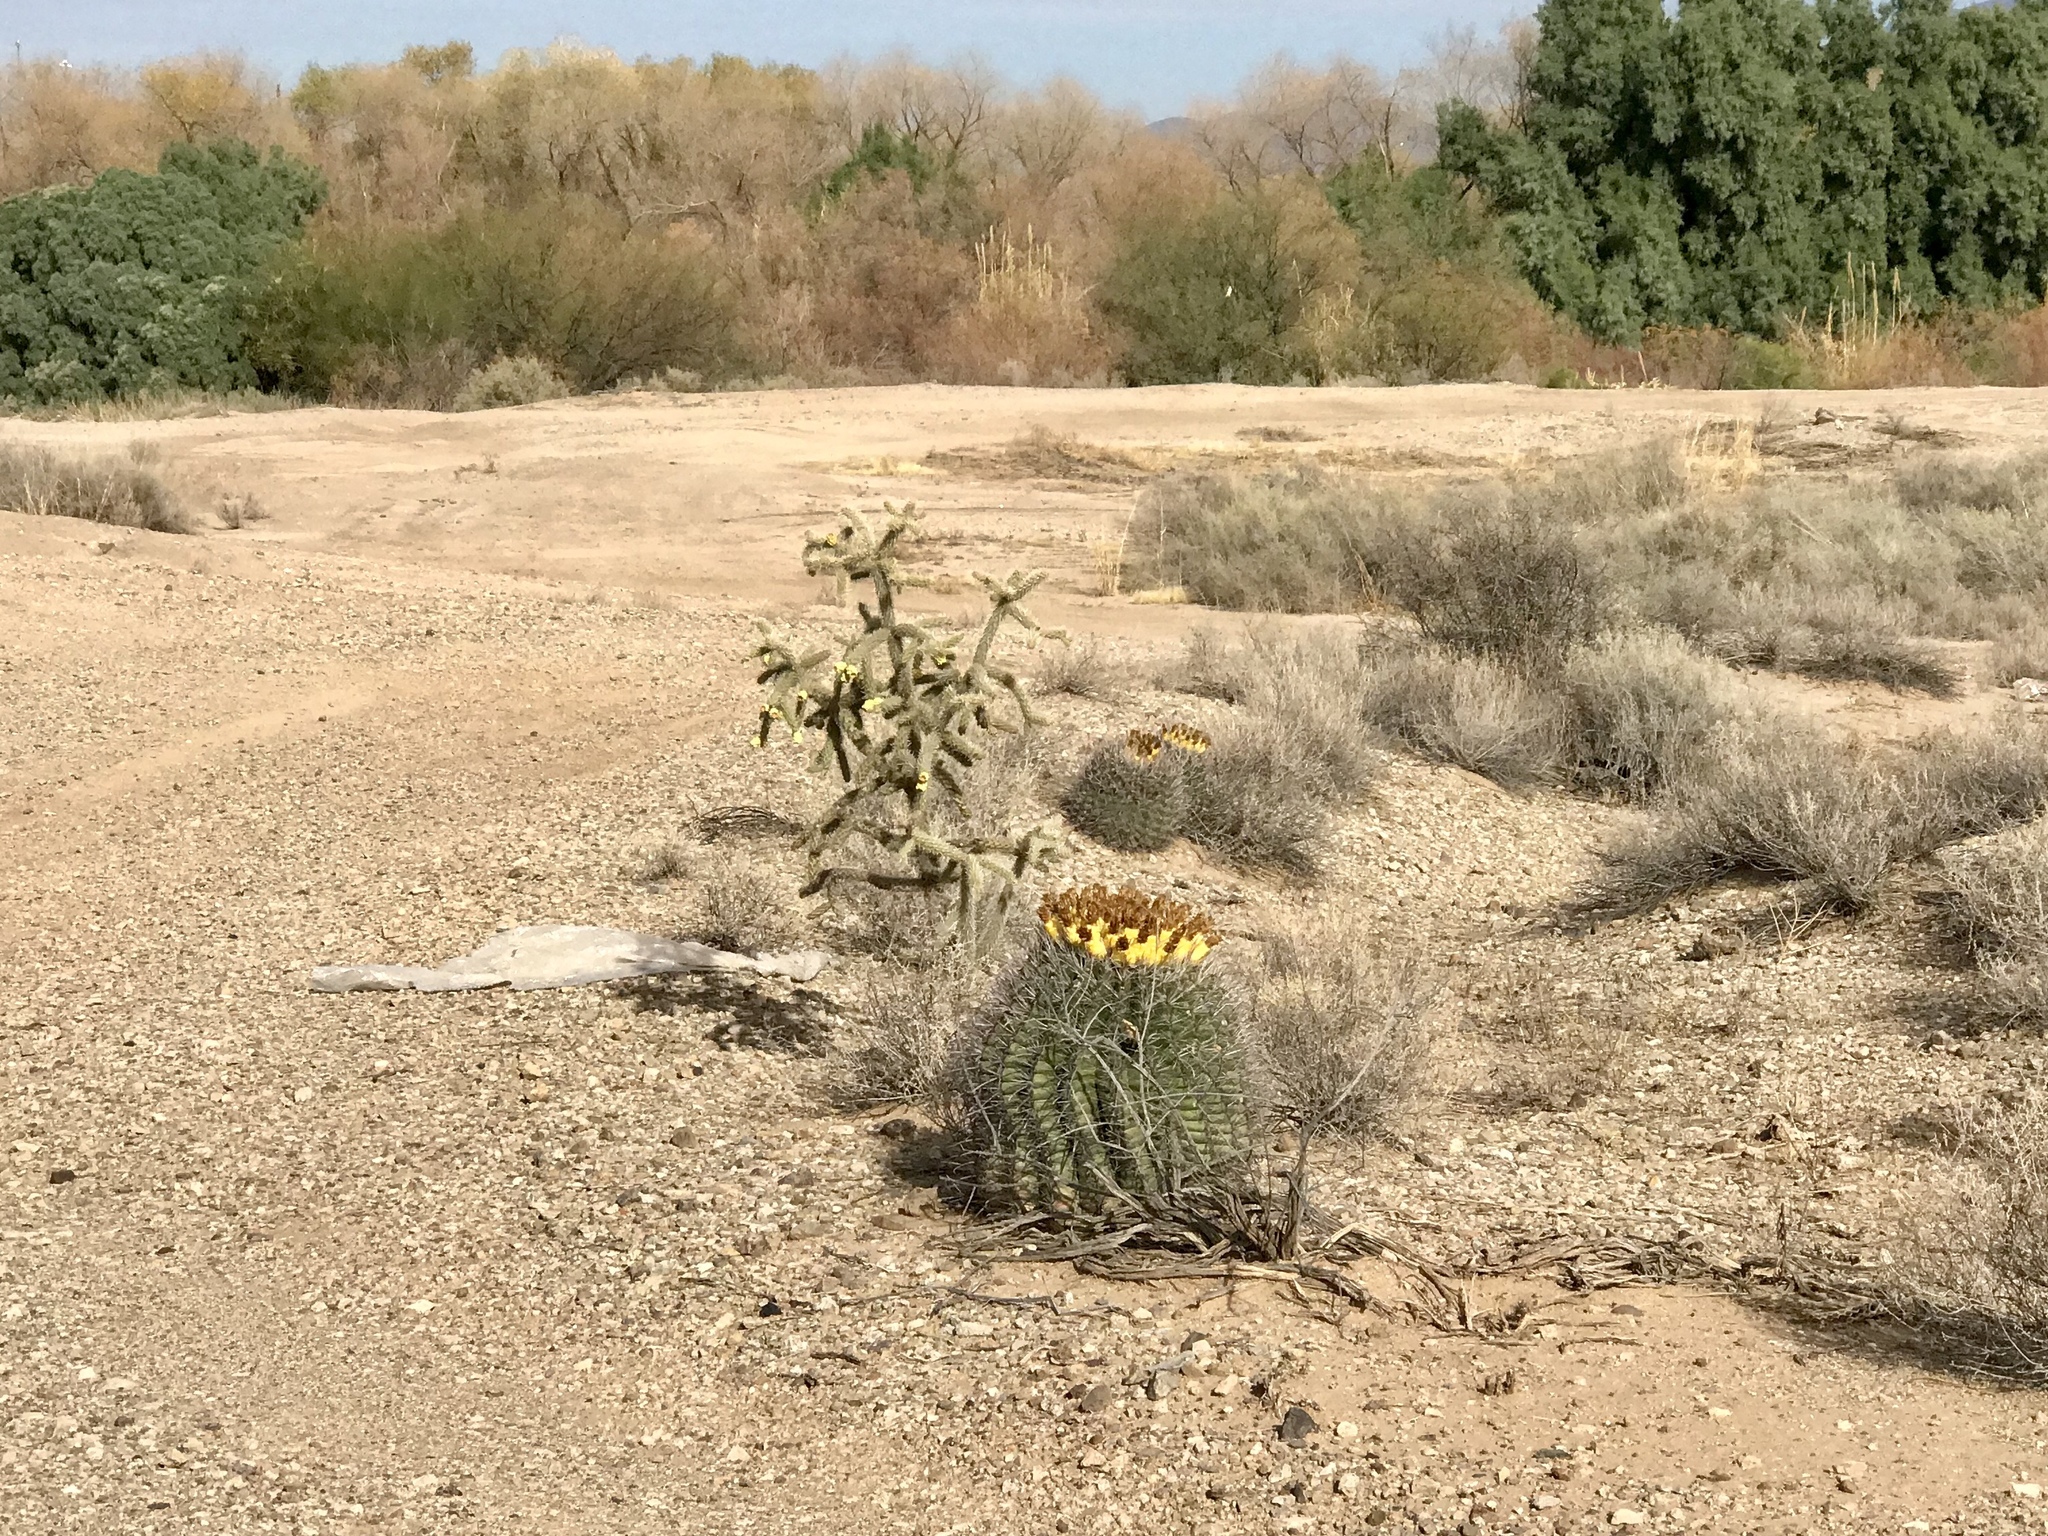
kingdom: Plantae
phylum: Tracheophyta
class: Magnoliopsida
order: Caryophyllales
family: Cactaceae
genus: Cylindropuntia
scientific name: Cylindropuntia imbricata
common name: Candelabrum cactus
